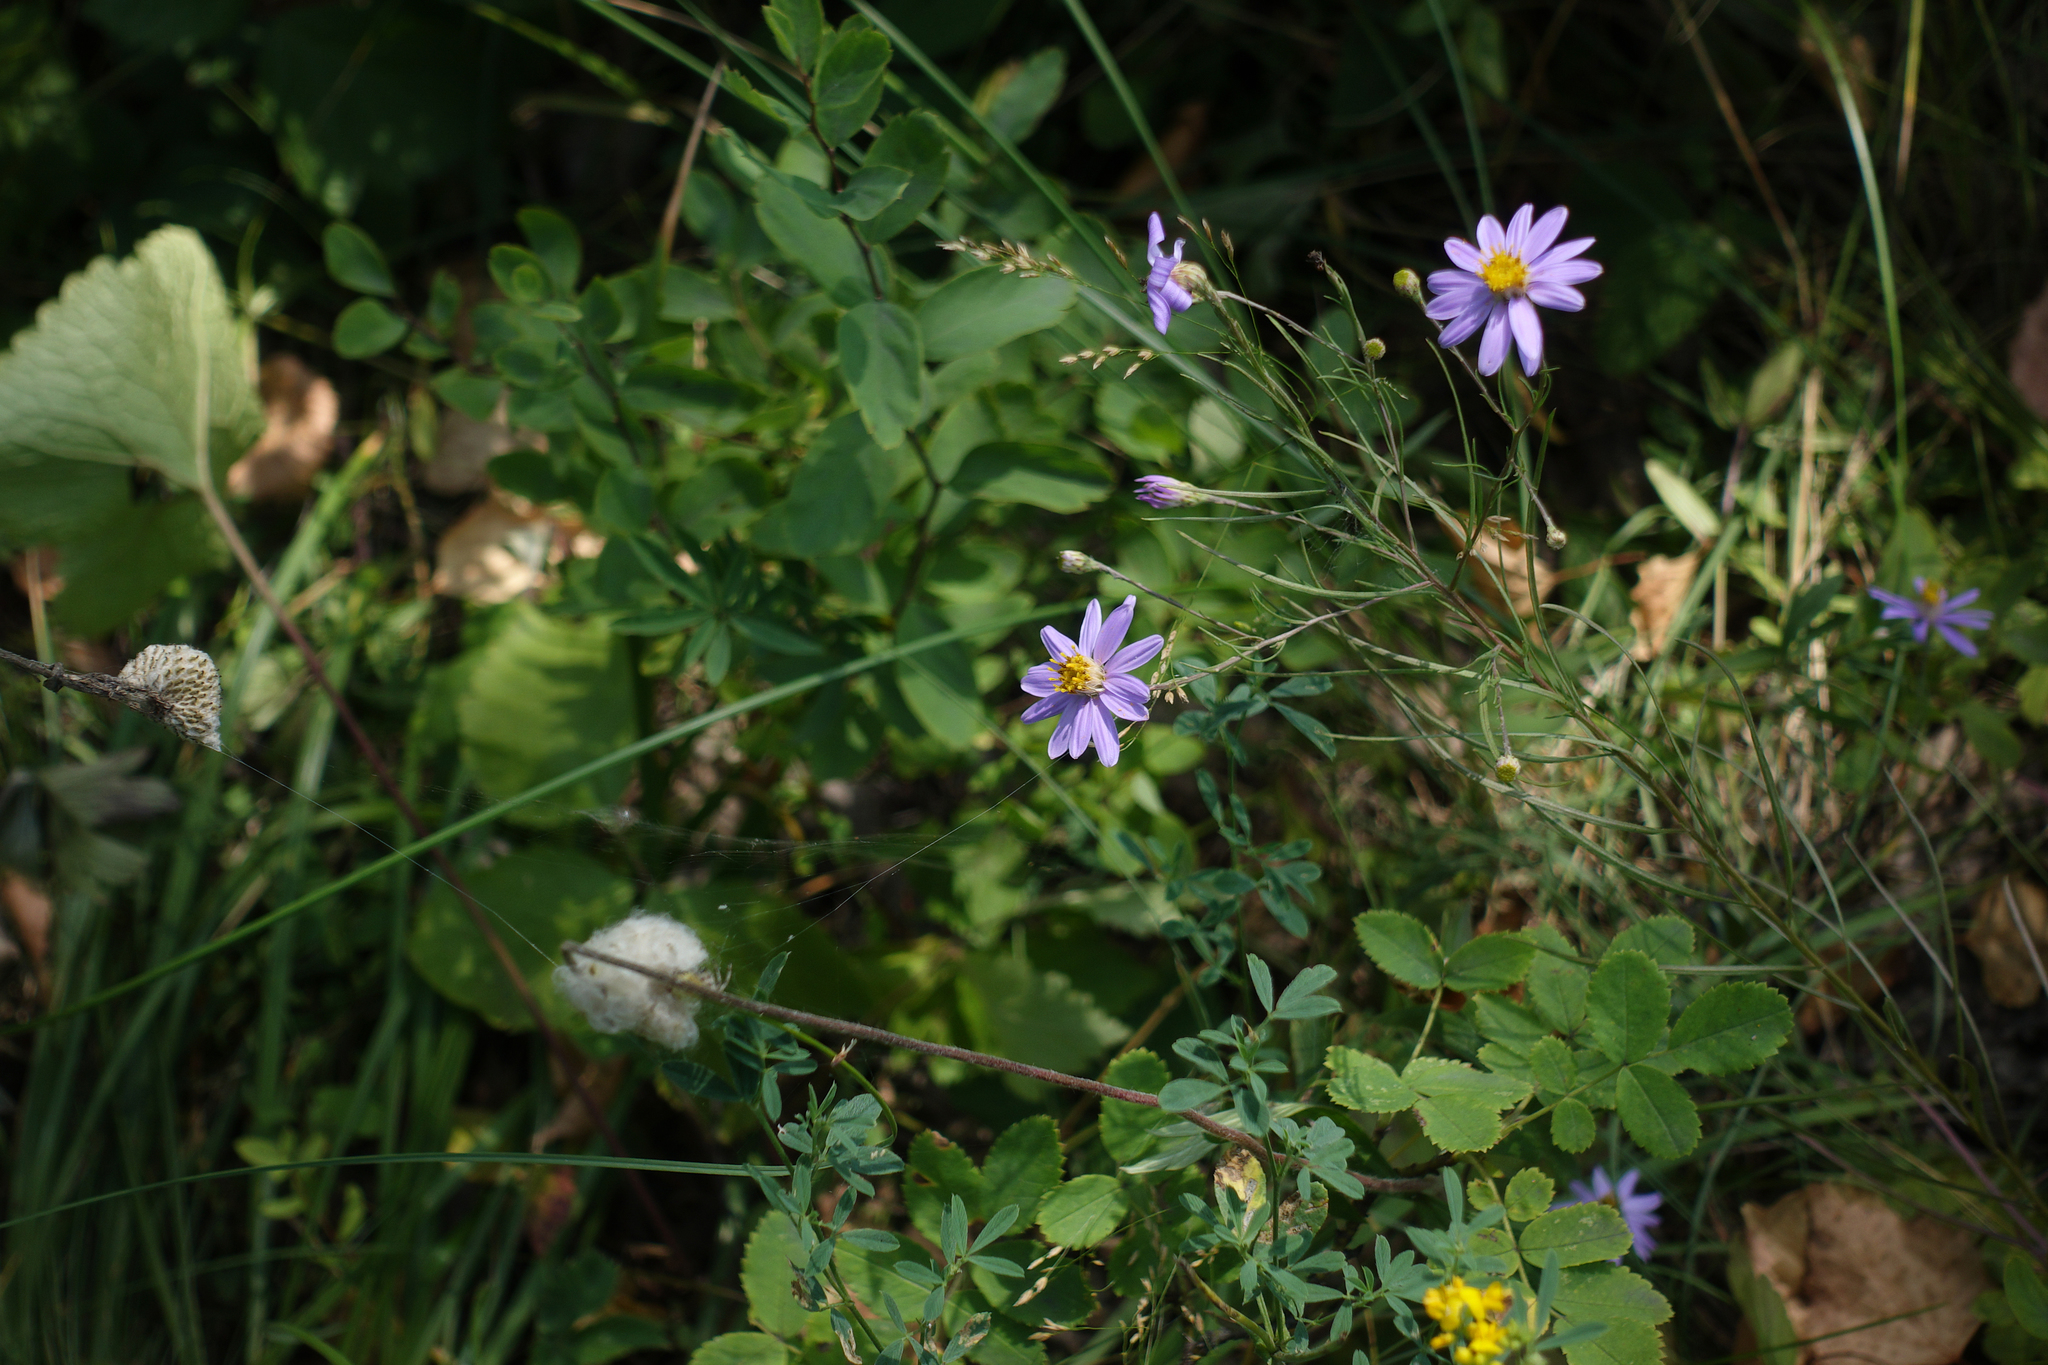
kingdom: Plantae
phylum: Tracheophyta
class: Magnoliopsida
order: Asterales
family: Asteraceae
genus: Galatella
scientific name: Galatella angustissima
